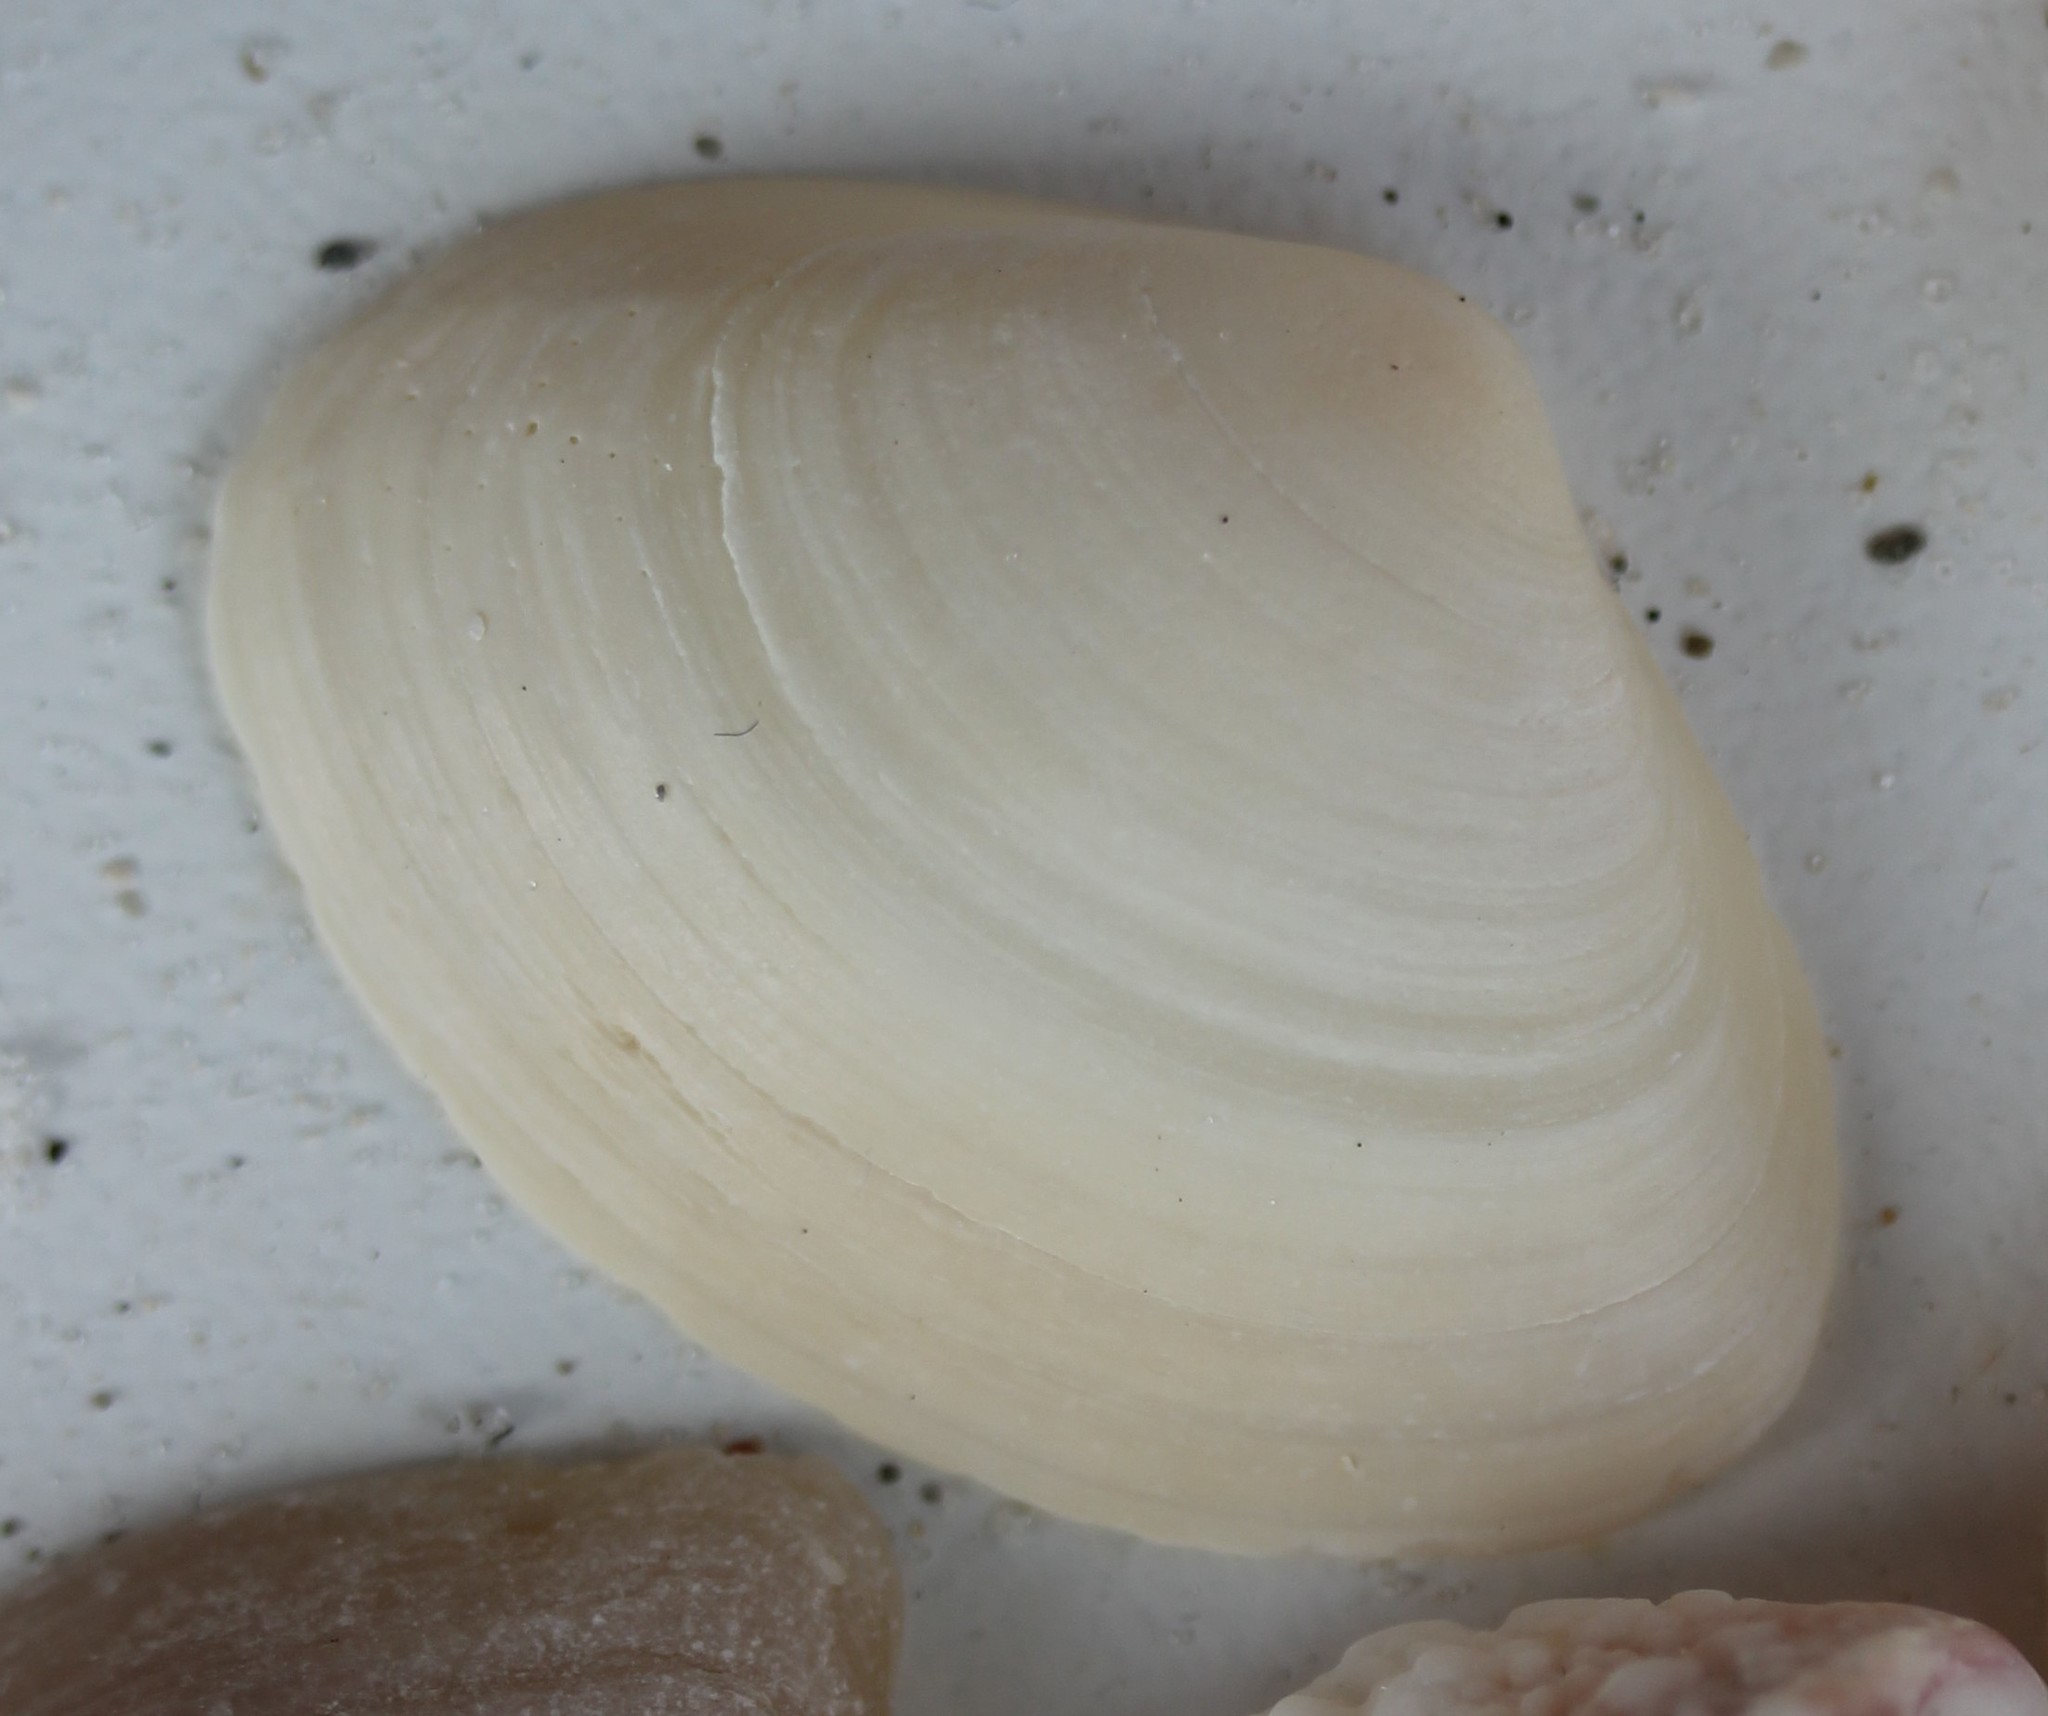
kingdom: Animalia
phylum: Mollusca
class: Bivalvia
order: Venerida
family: Mactridae
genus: Spisula
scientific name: Spisula raveneli
